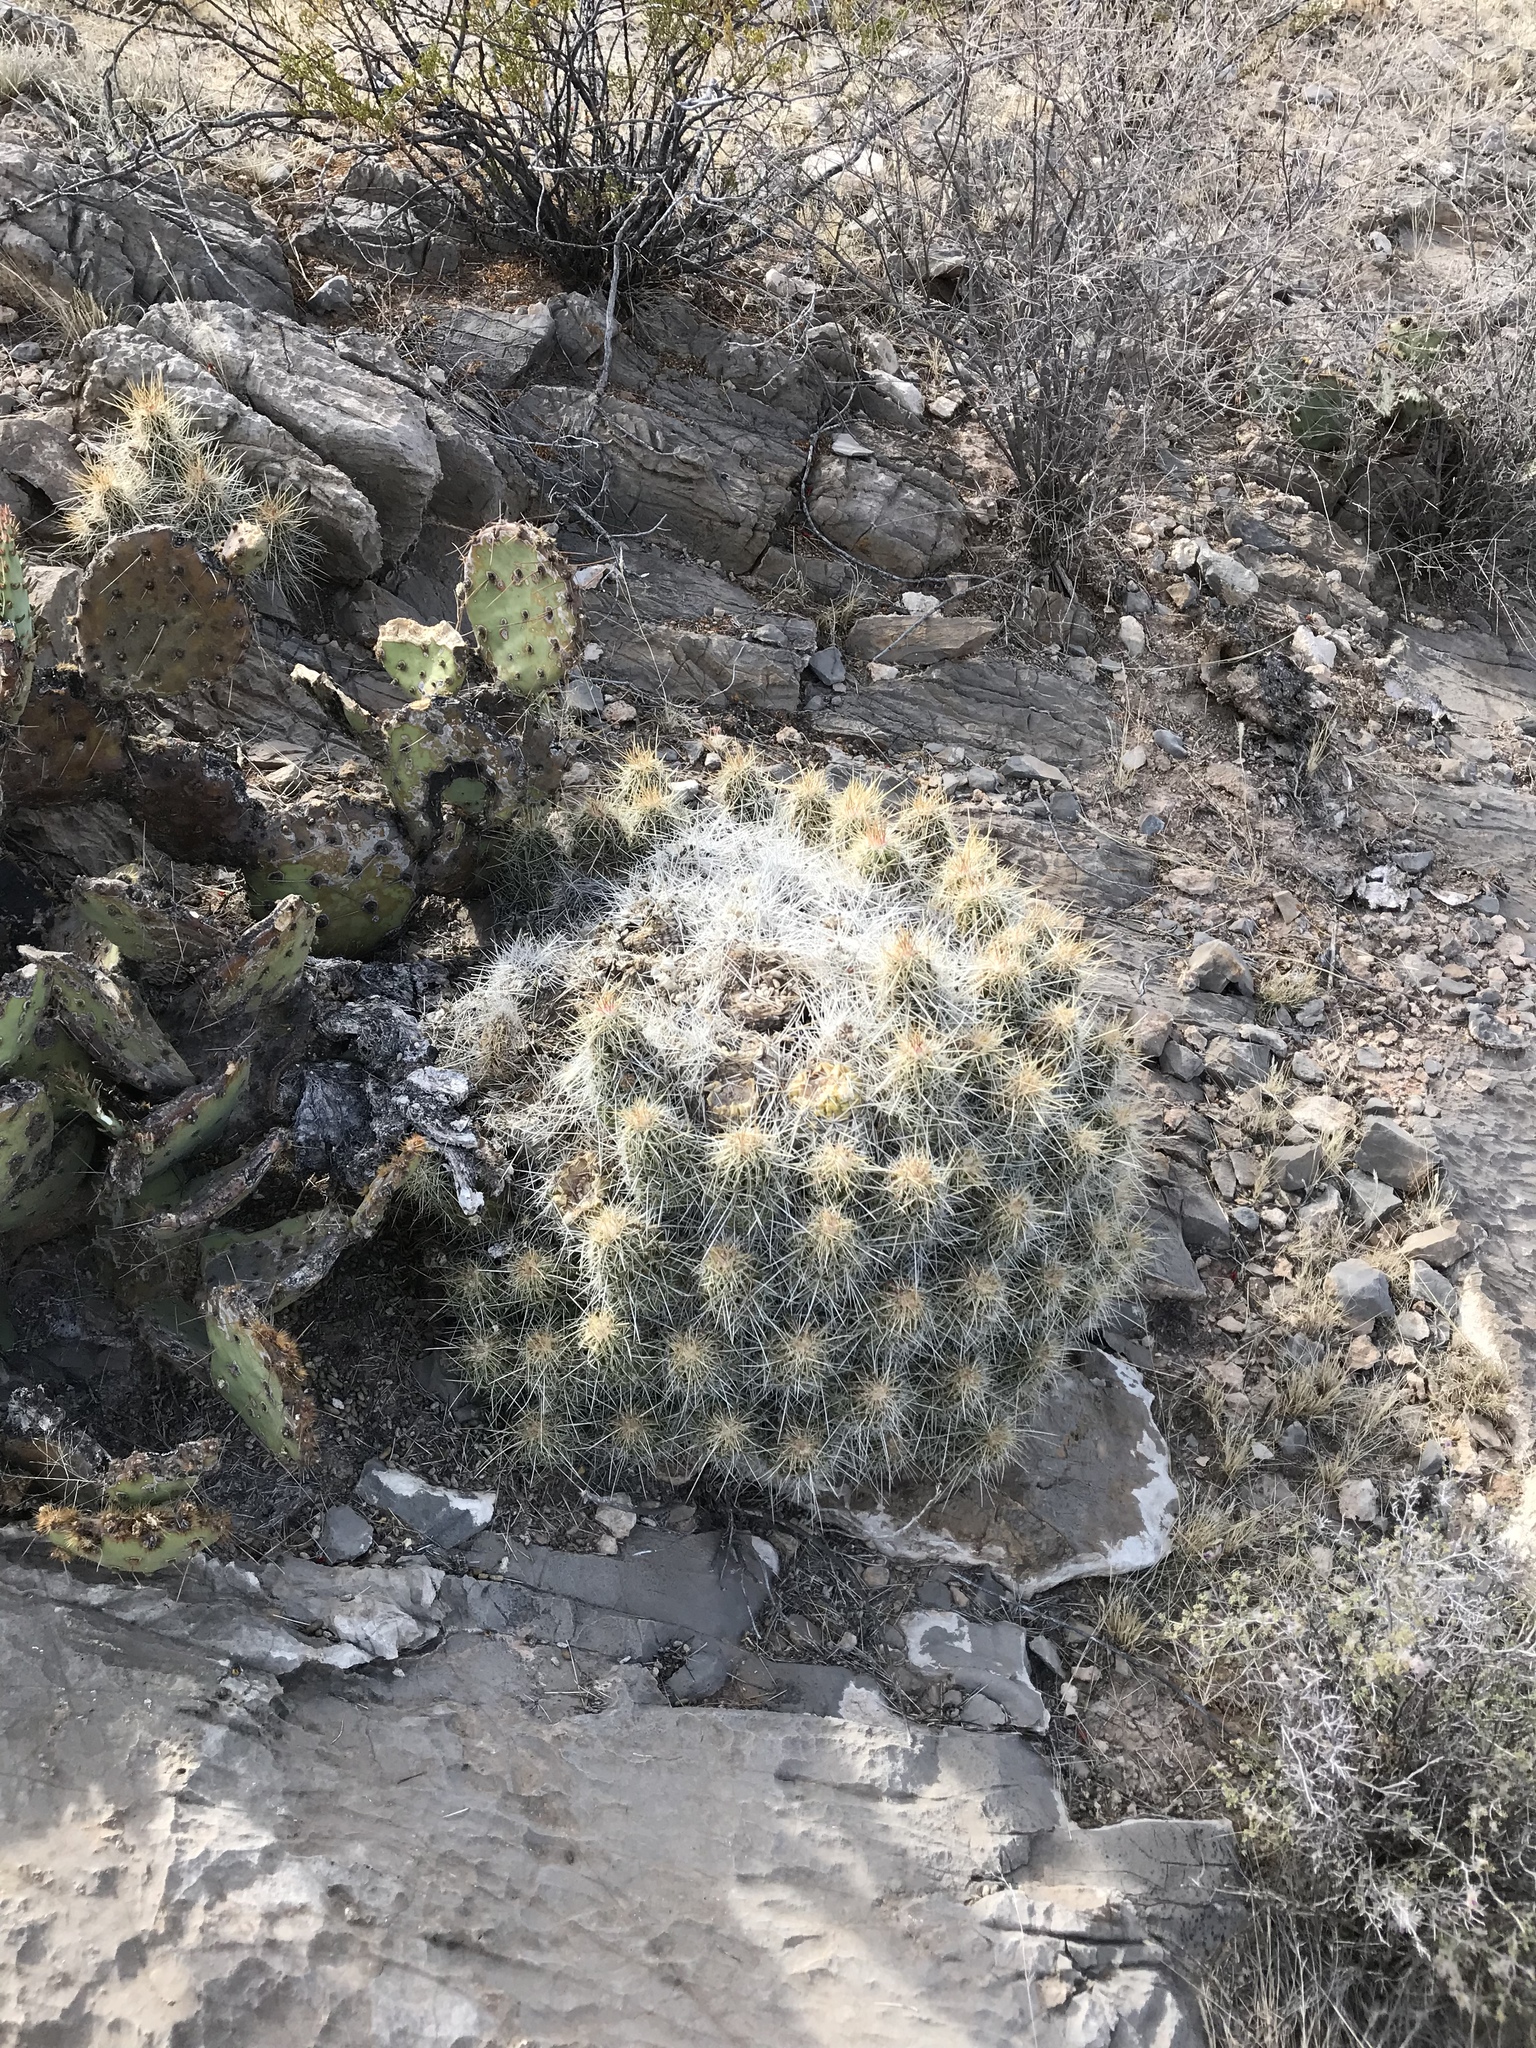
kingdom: Plantae
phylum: Tracheophyta
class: Magnoliopsida
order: Caryophyllales
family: Cactaceae
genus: Echinocereus
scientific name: Echinocereus stramineus
